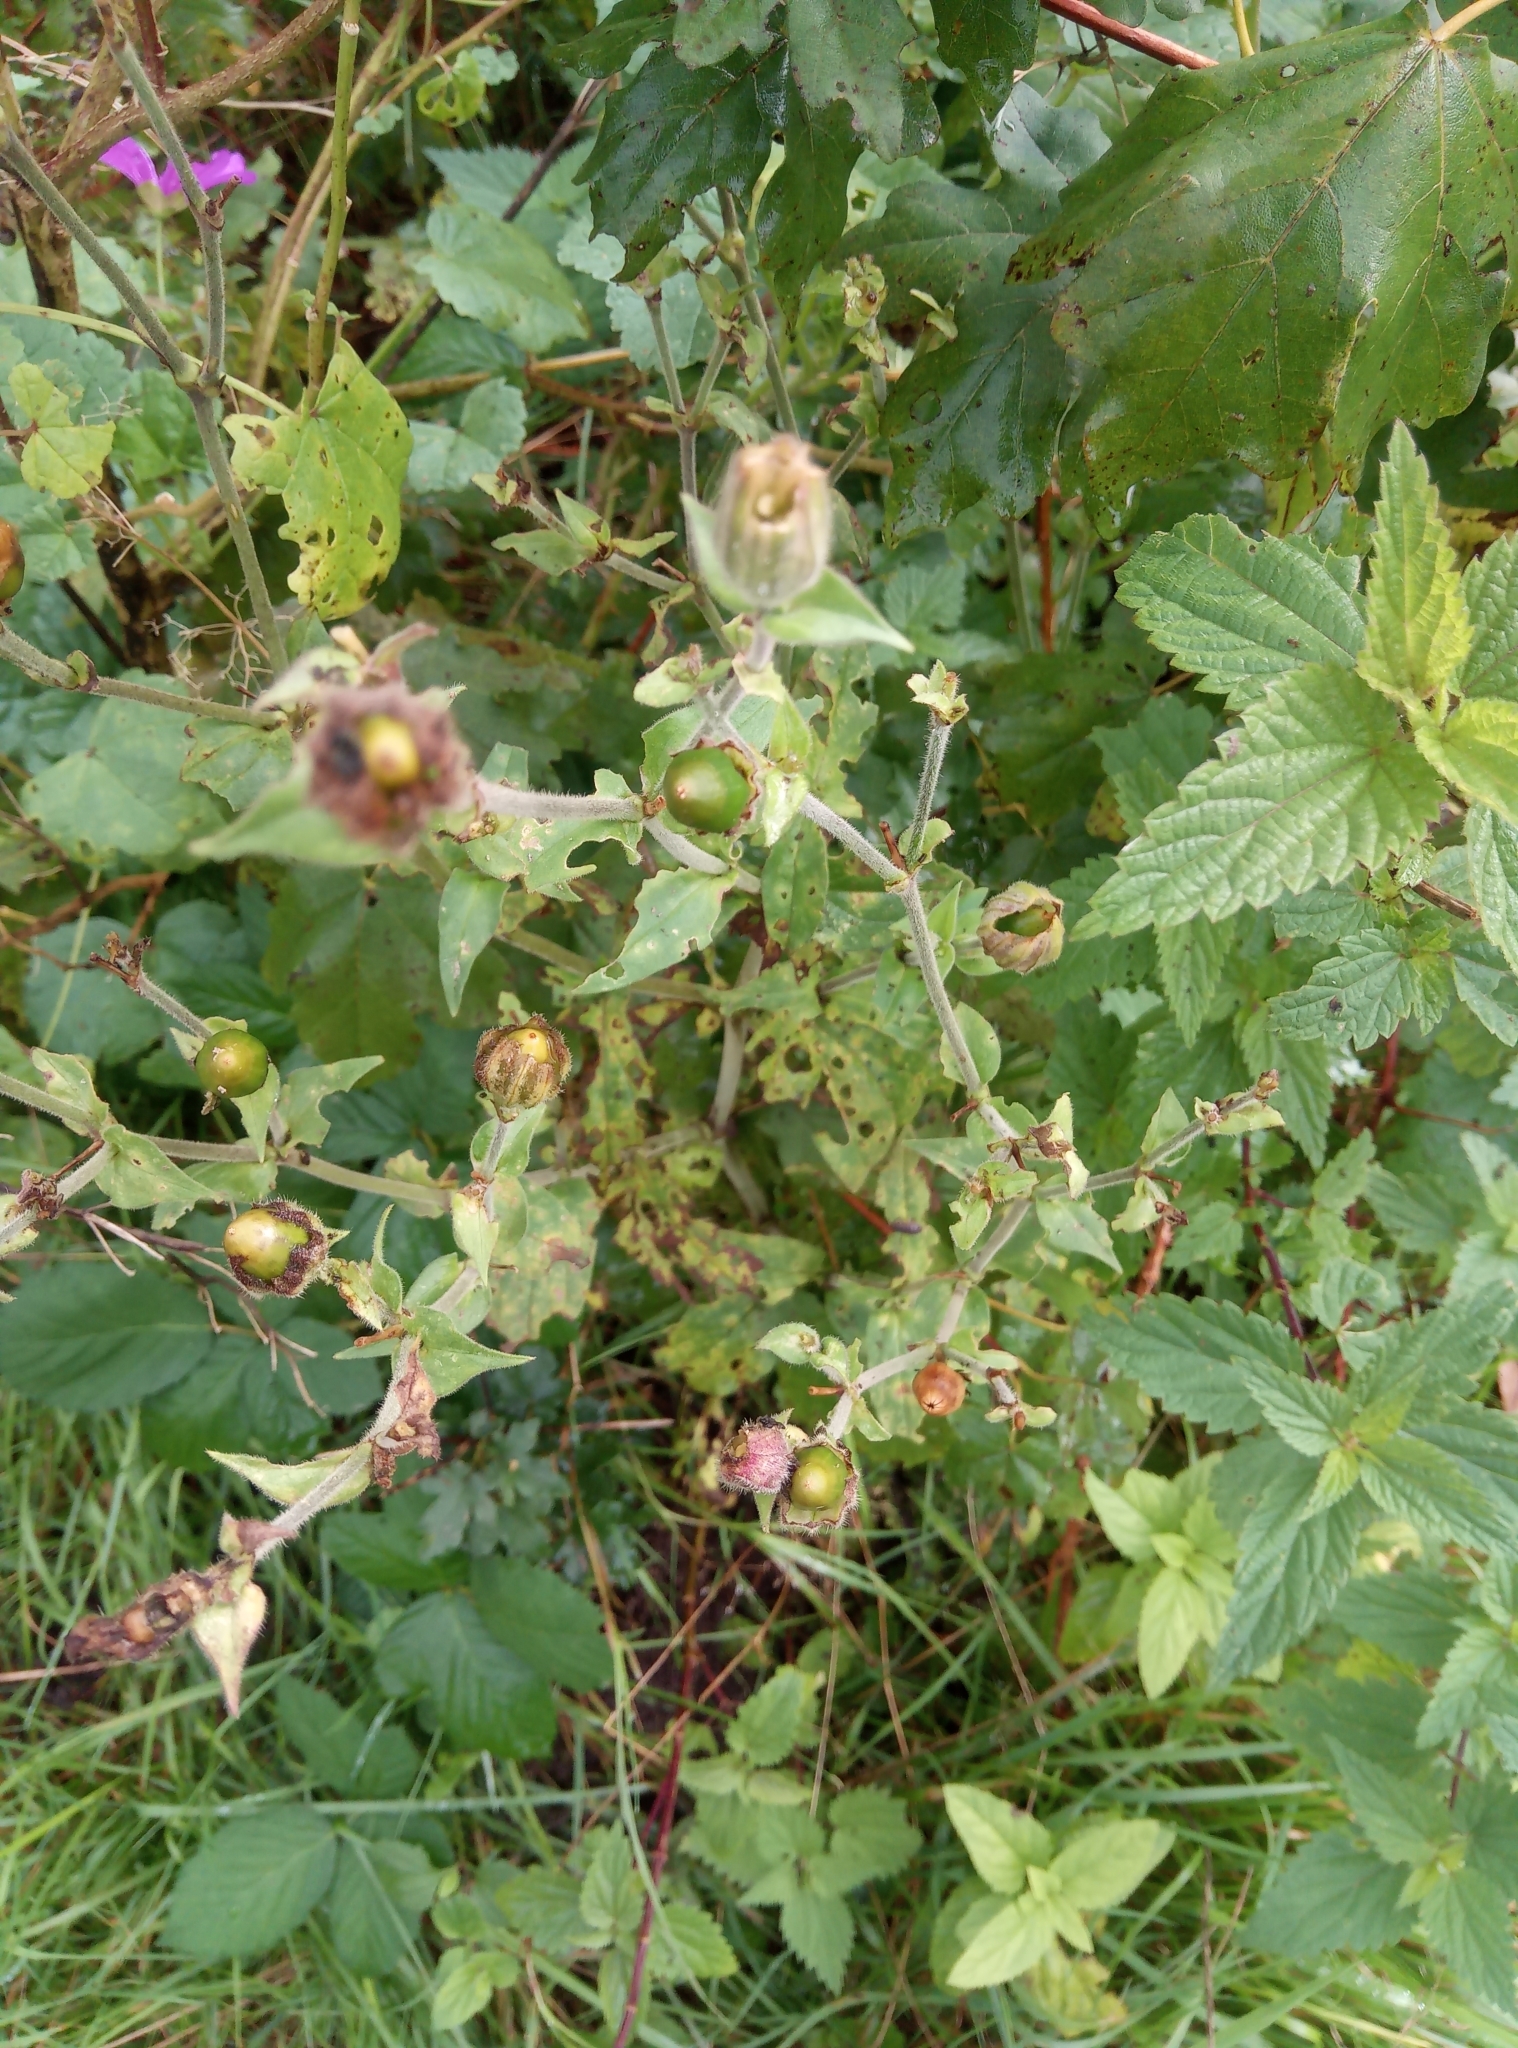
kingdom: Plantae
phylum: Tracheophyta
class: Magnoliopsida
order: Caryophyllales
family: Caryophyllaceae
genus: Silene
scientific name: Silene latifolia
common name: White campion
